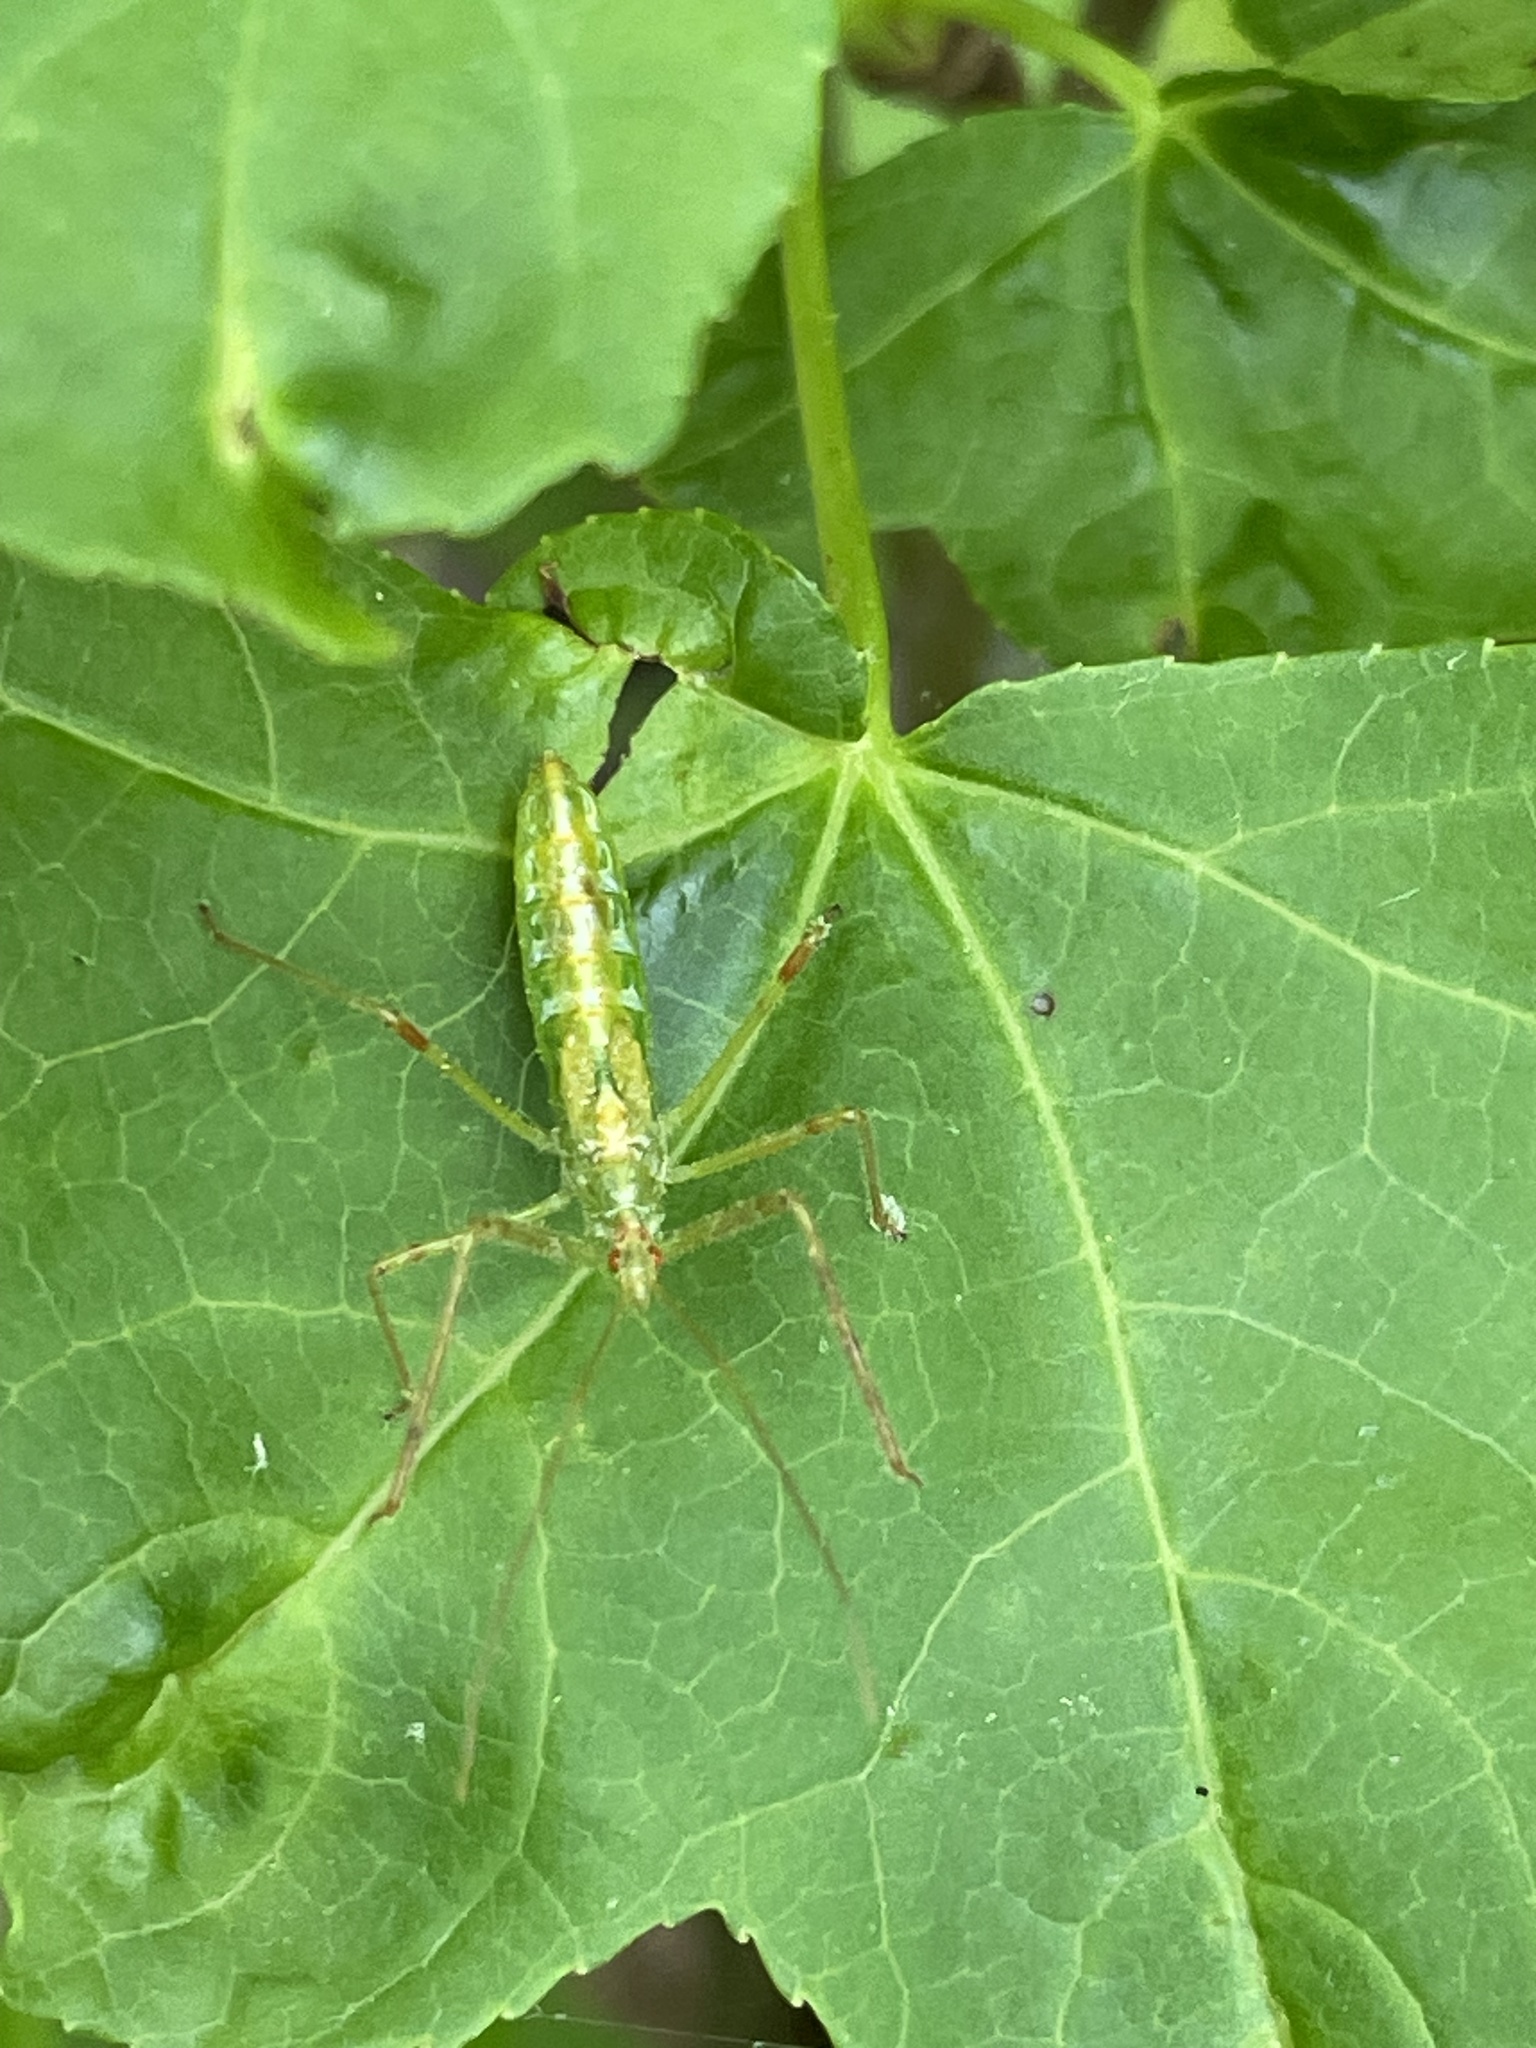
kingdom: Animalia
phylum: Arthropoda
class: Insecta
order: Hemiptera
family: Reduviidae
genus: Zelus
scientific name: Zelus luridus
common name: Pale green assassin bug
